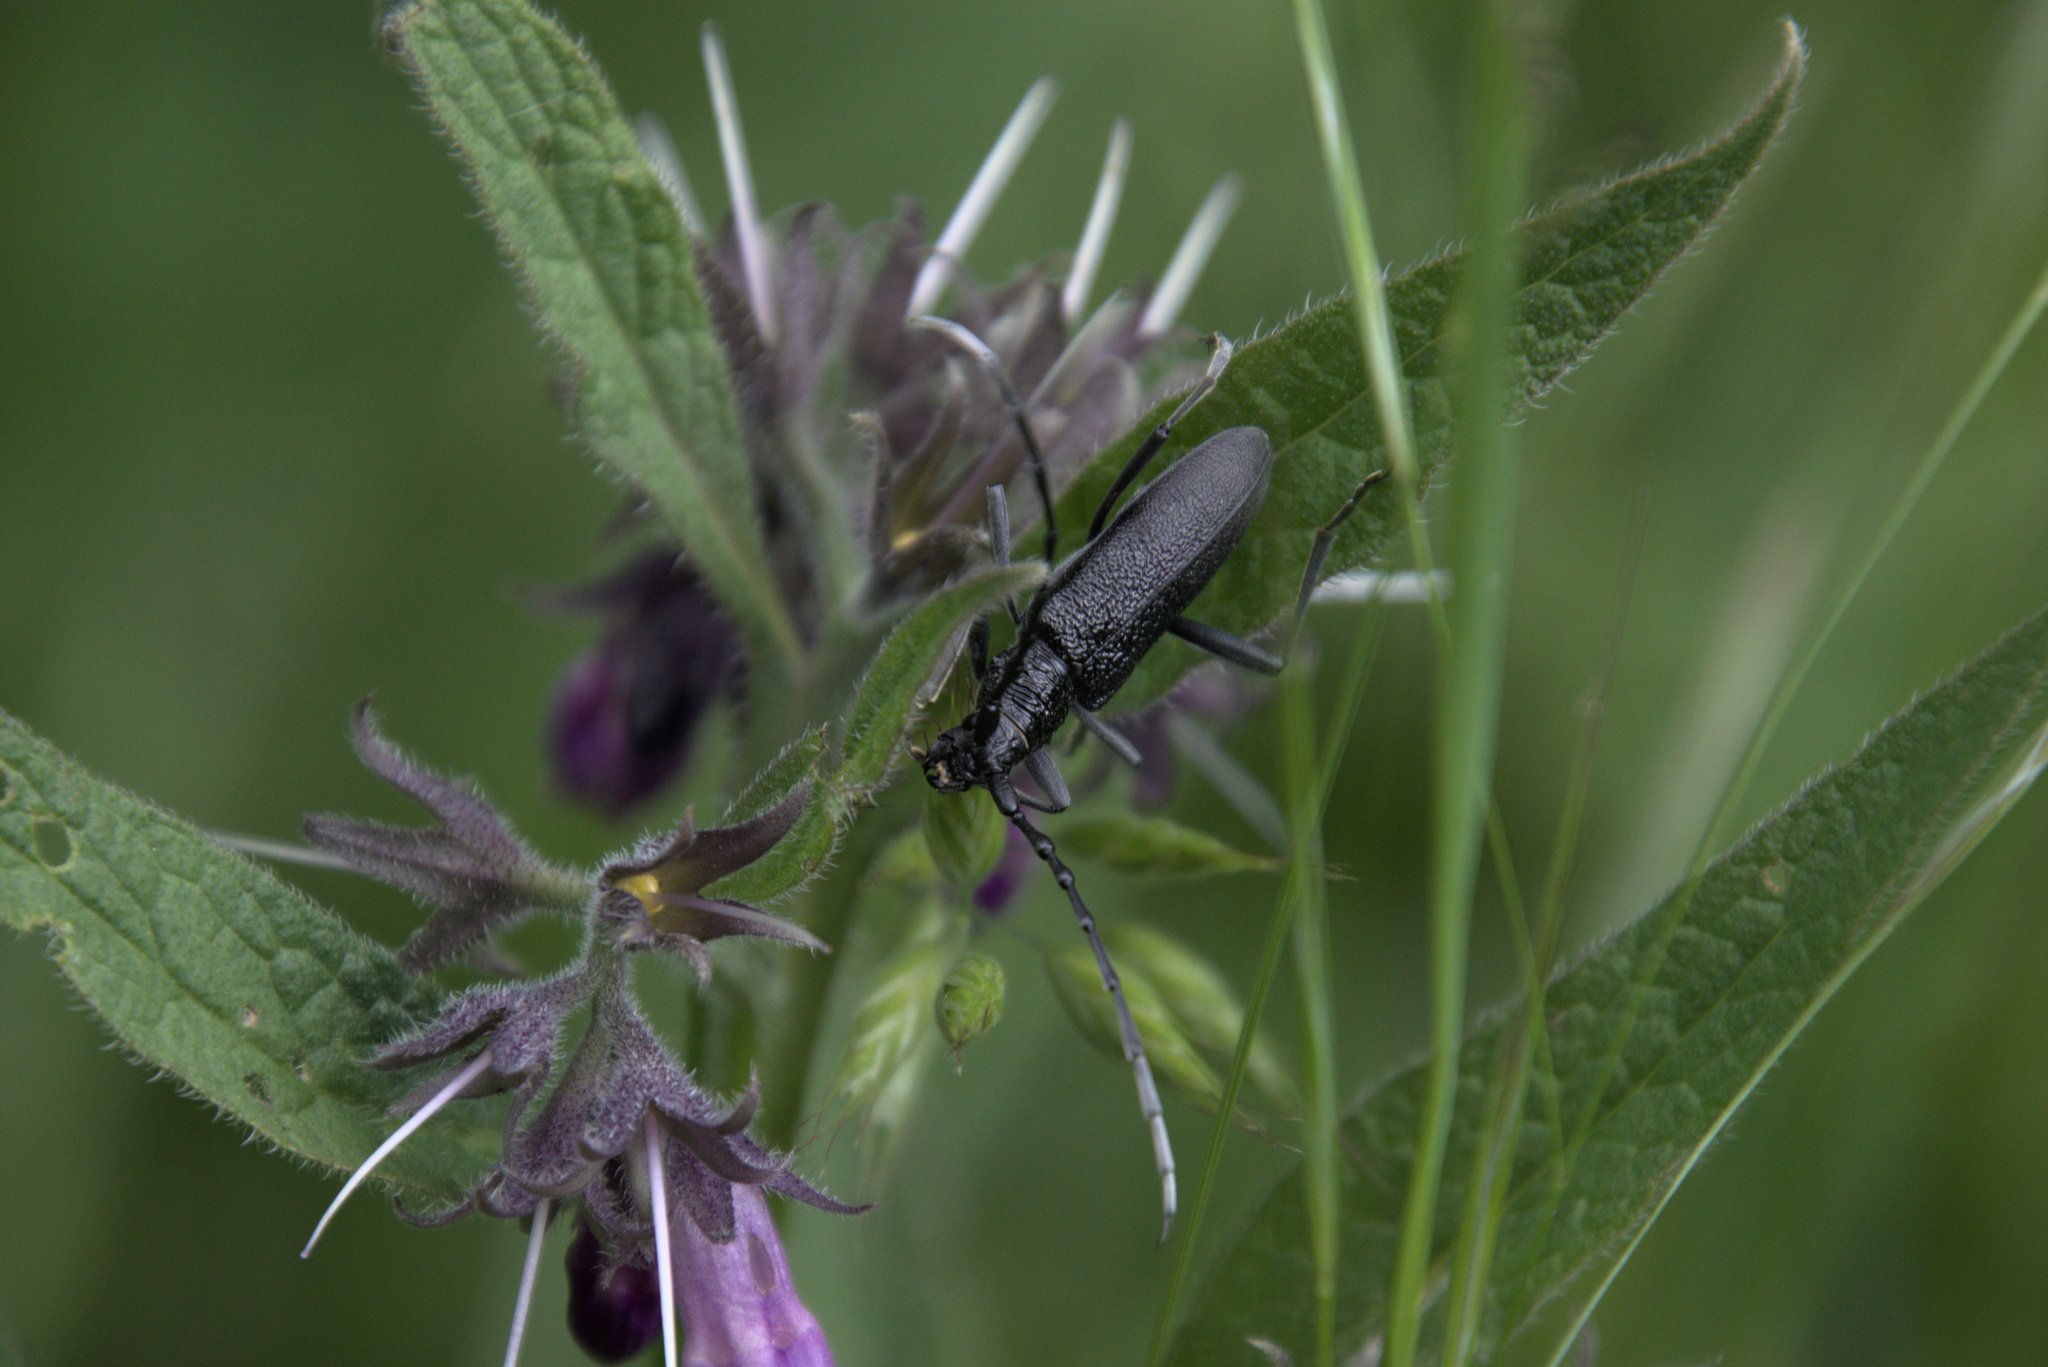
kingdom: Animalia
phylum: Arthropoda
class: Insecta
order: Coleoptera
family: Cerambycidae
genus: Cerambyx
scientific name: Cerambyx scopolii
